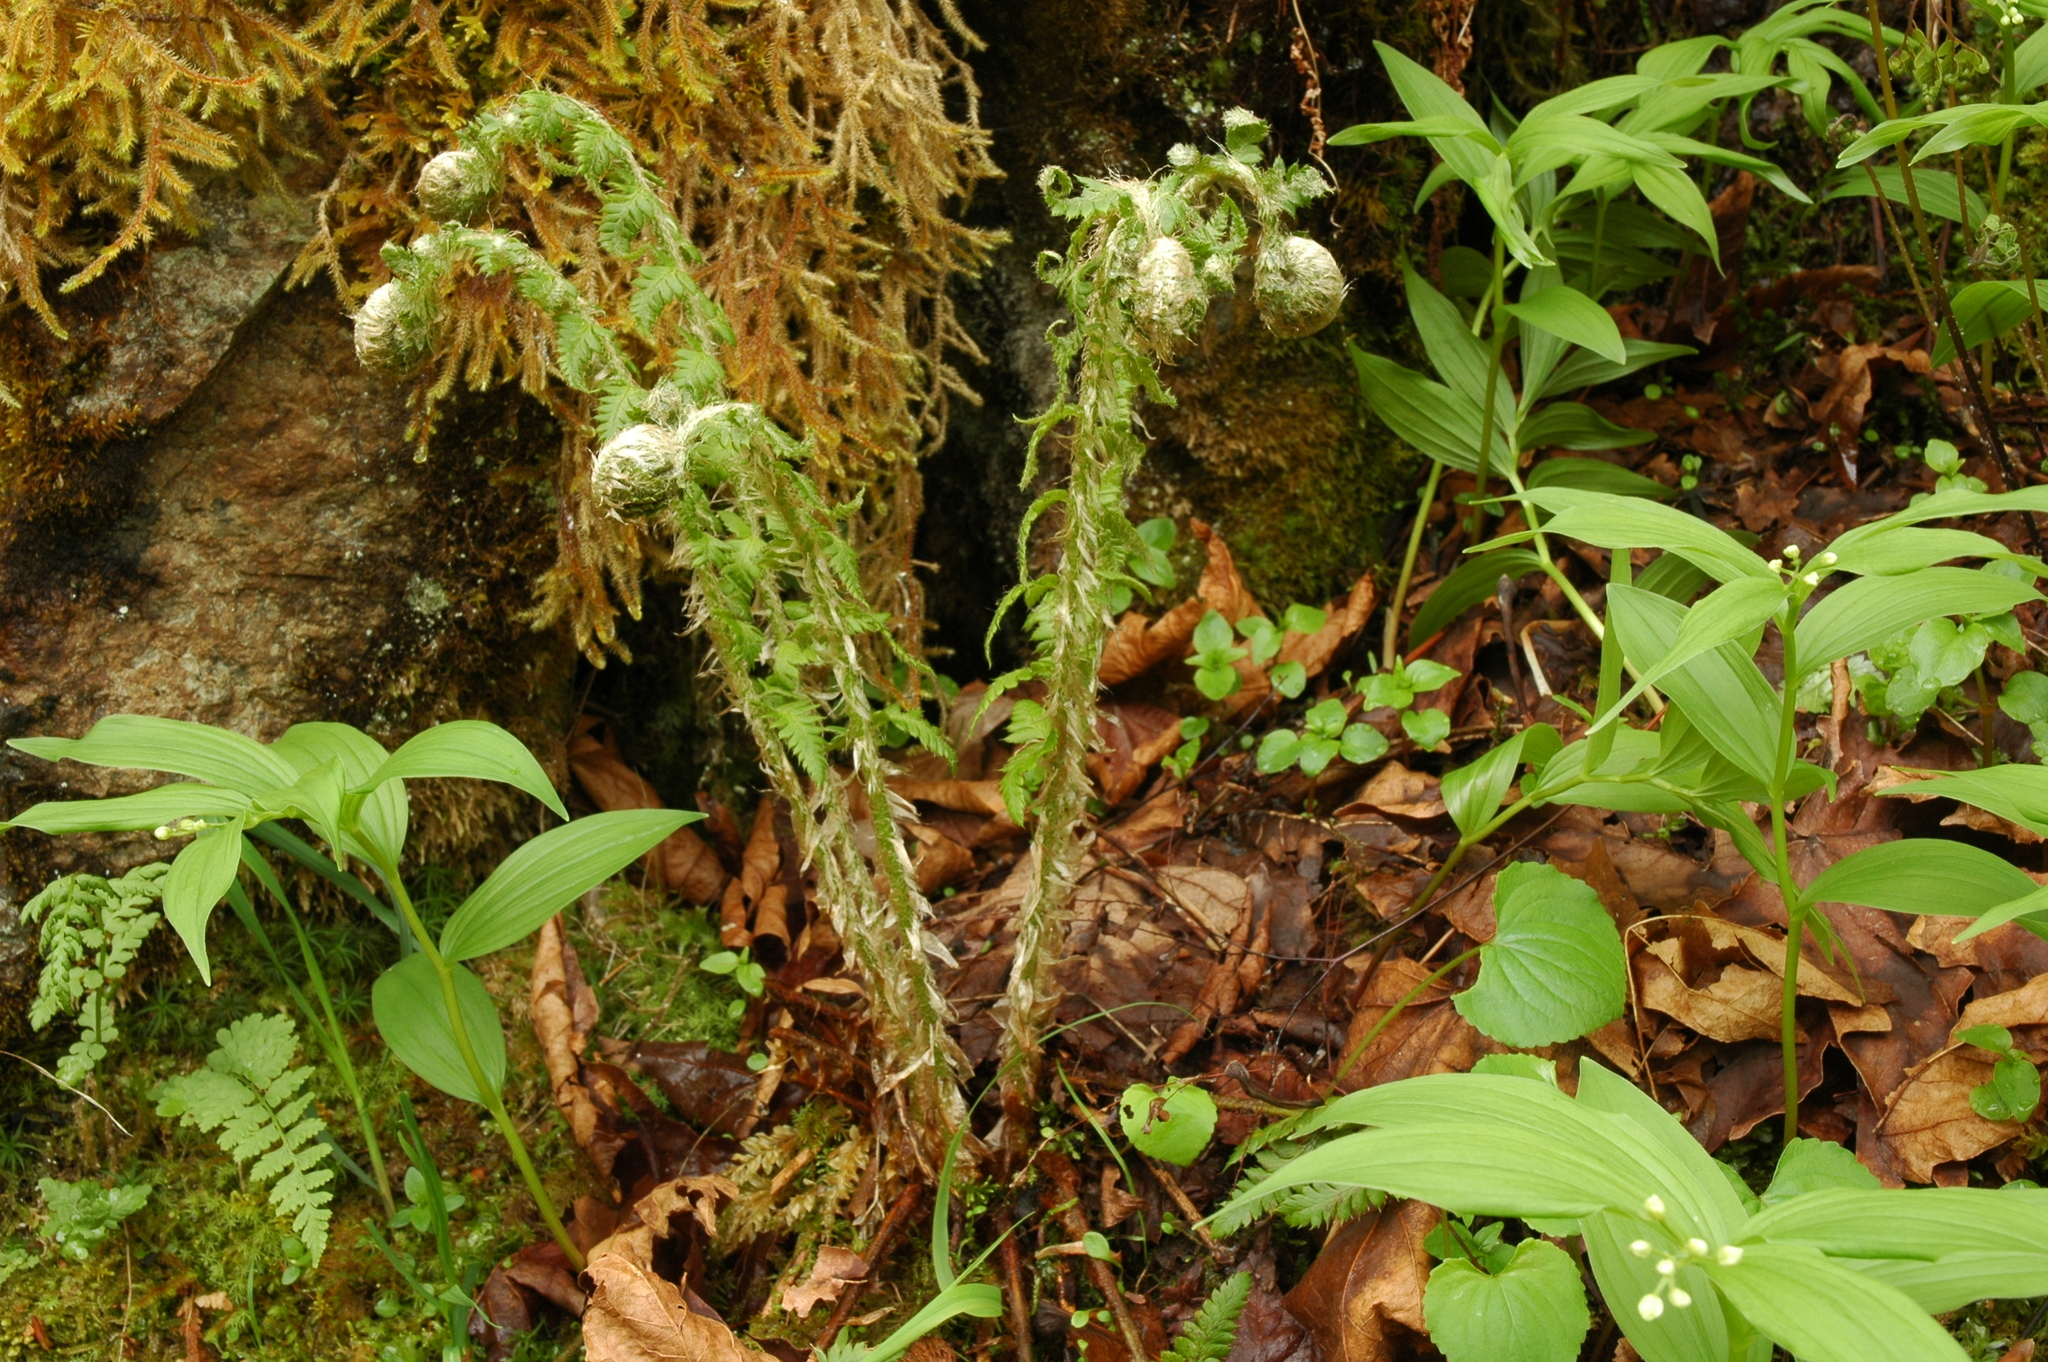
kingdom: Plantae
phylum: Tracheophyta
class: Polypodiopsida
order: Polypodiales
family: Dryopteridaceae
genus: Polystichum
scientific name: Polystichum andersonii
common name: Anderson's holly fern
